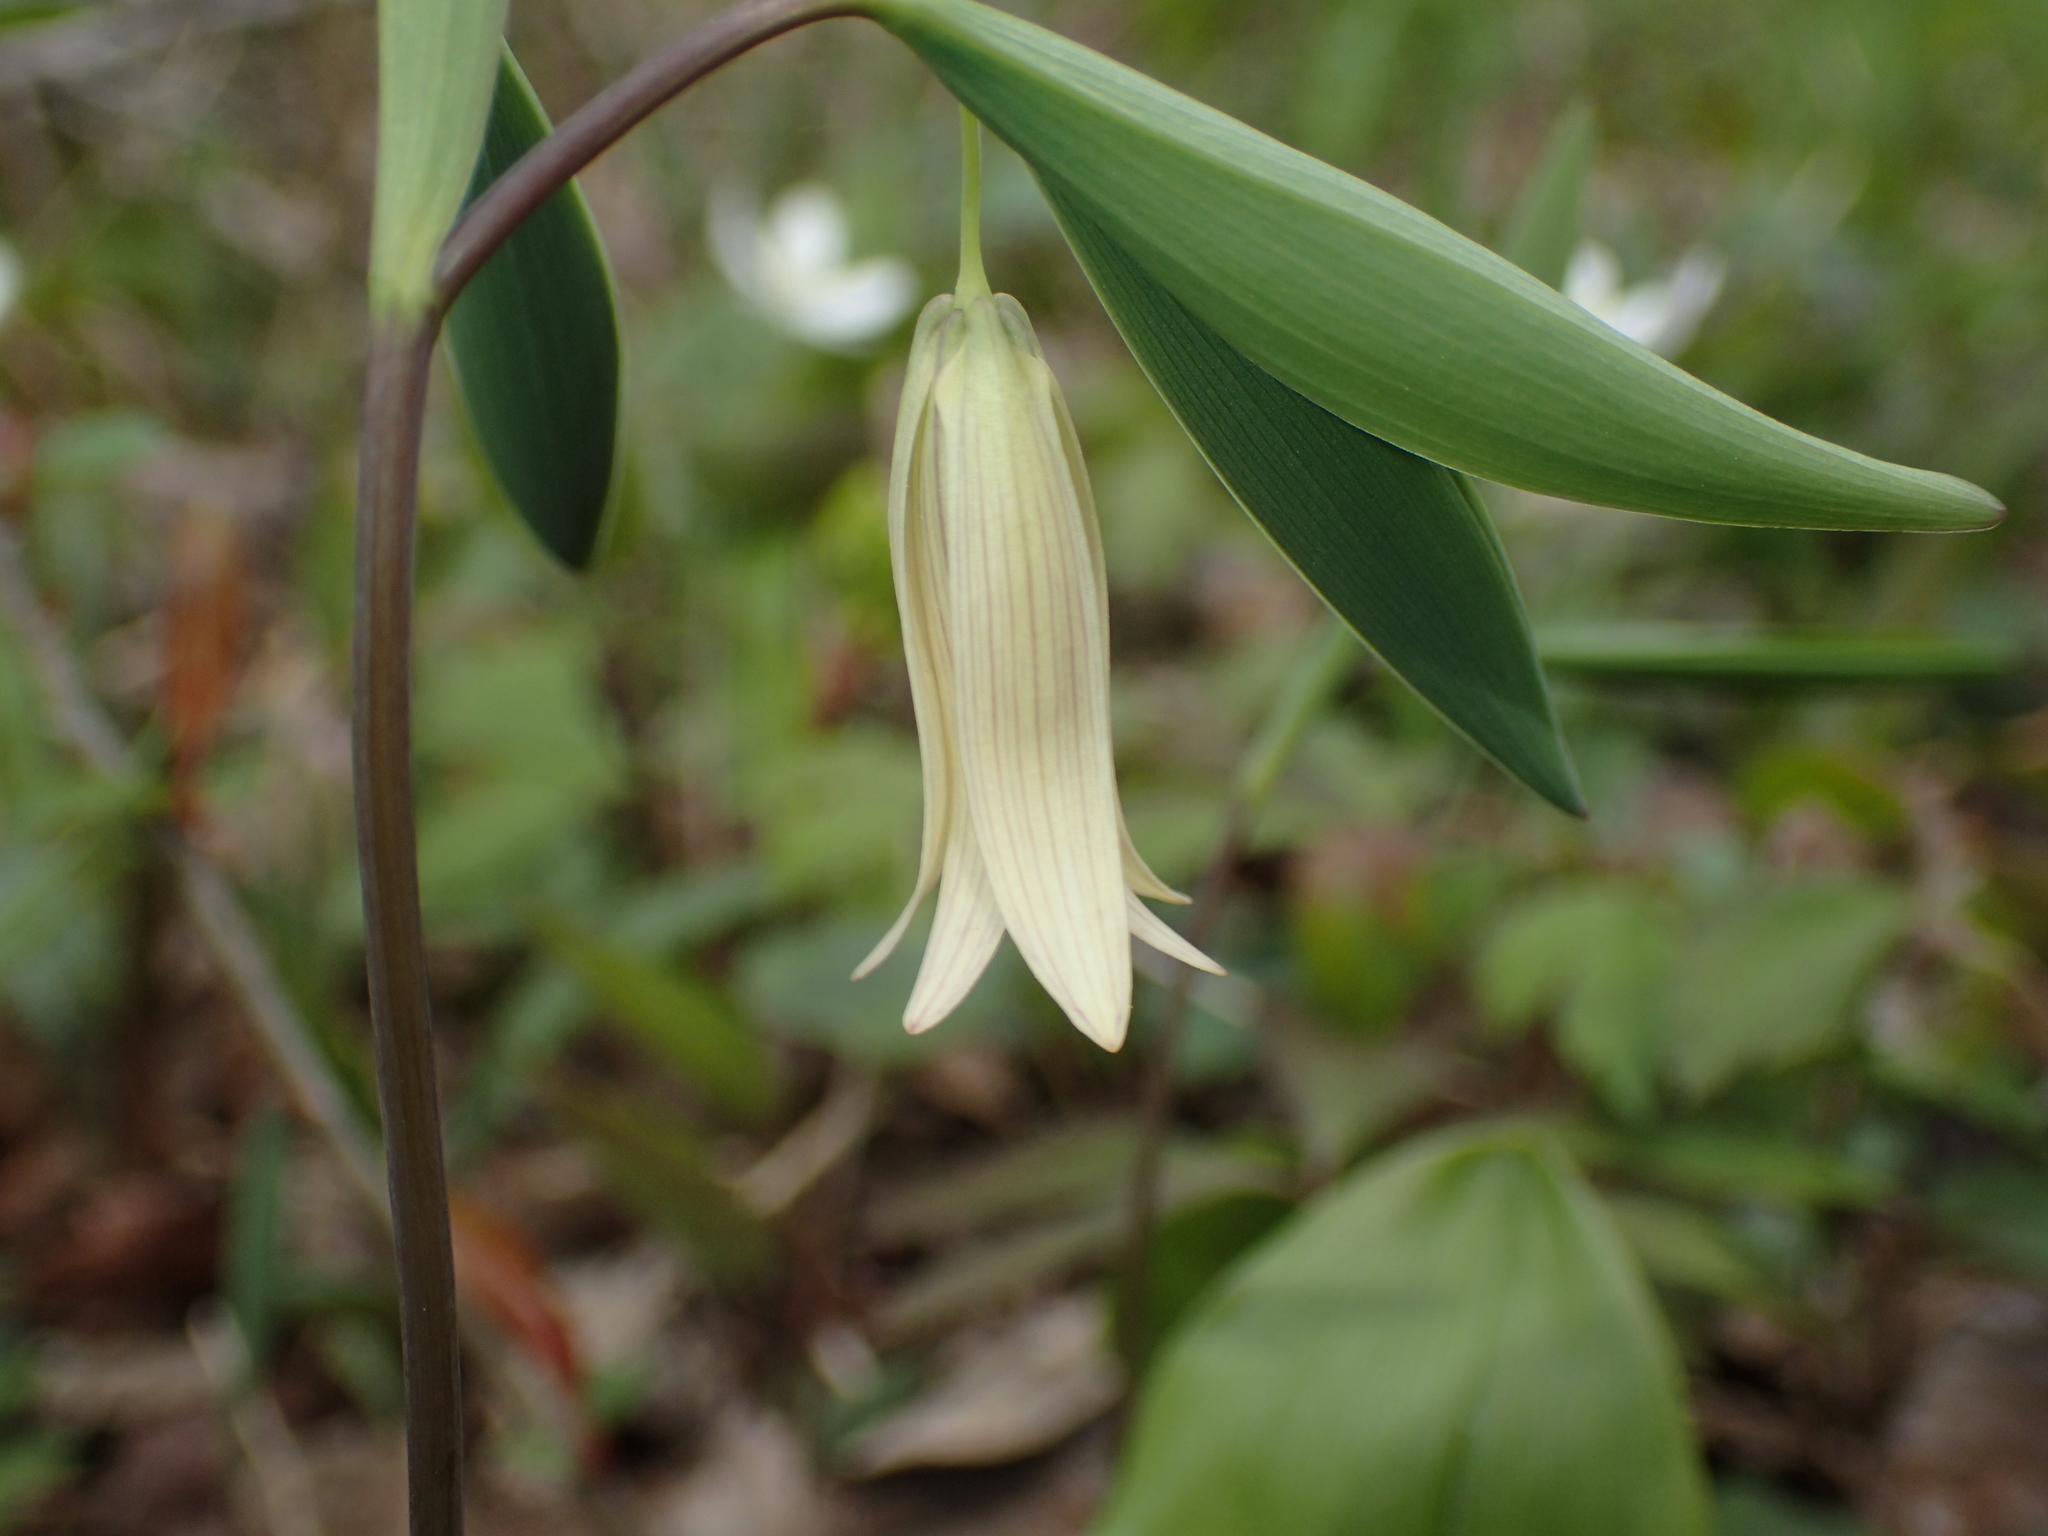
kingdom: Plantae
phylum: Tracheophyta
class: Liliopsida
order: Liliales
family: Colchicaceae
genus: Uvularia
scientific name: Uvularia sessilifolia
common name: Straw-lily
